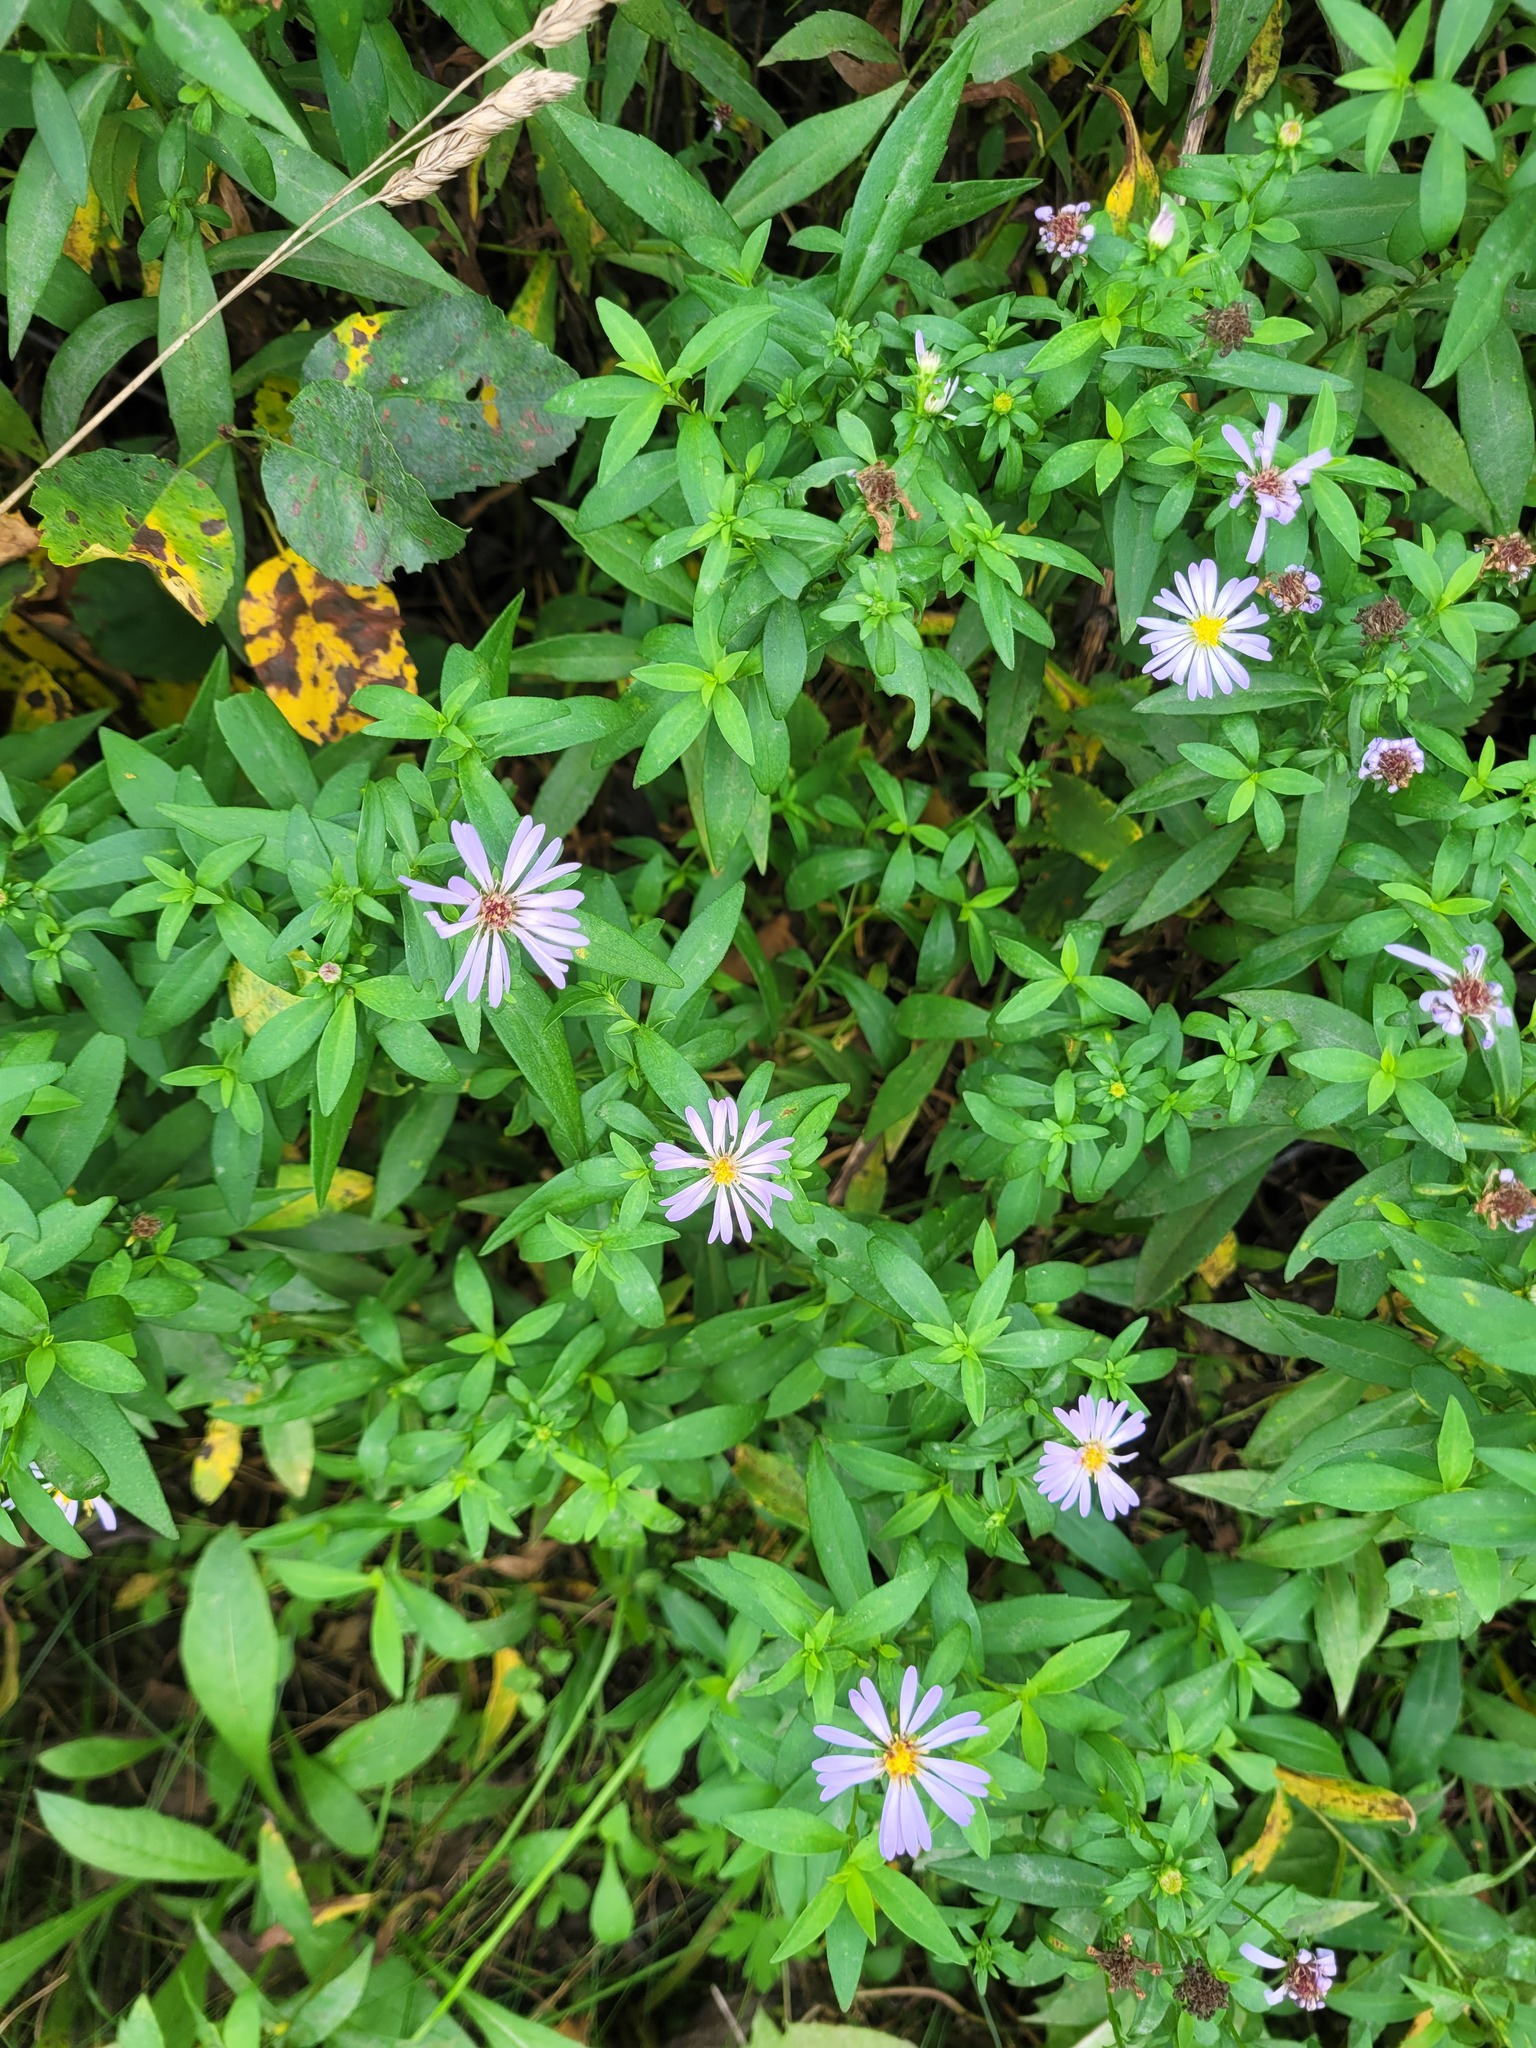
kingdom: Plantae
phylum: Tracheophyta
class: Magnoliopsida
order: Asterales
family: Asteraceae
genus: Symphyotrichum
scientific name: Symphyotrichum novi-belgii
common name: Michaelmas daisy
